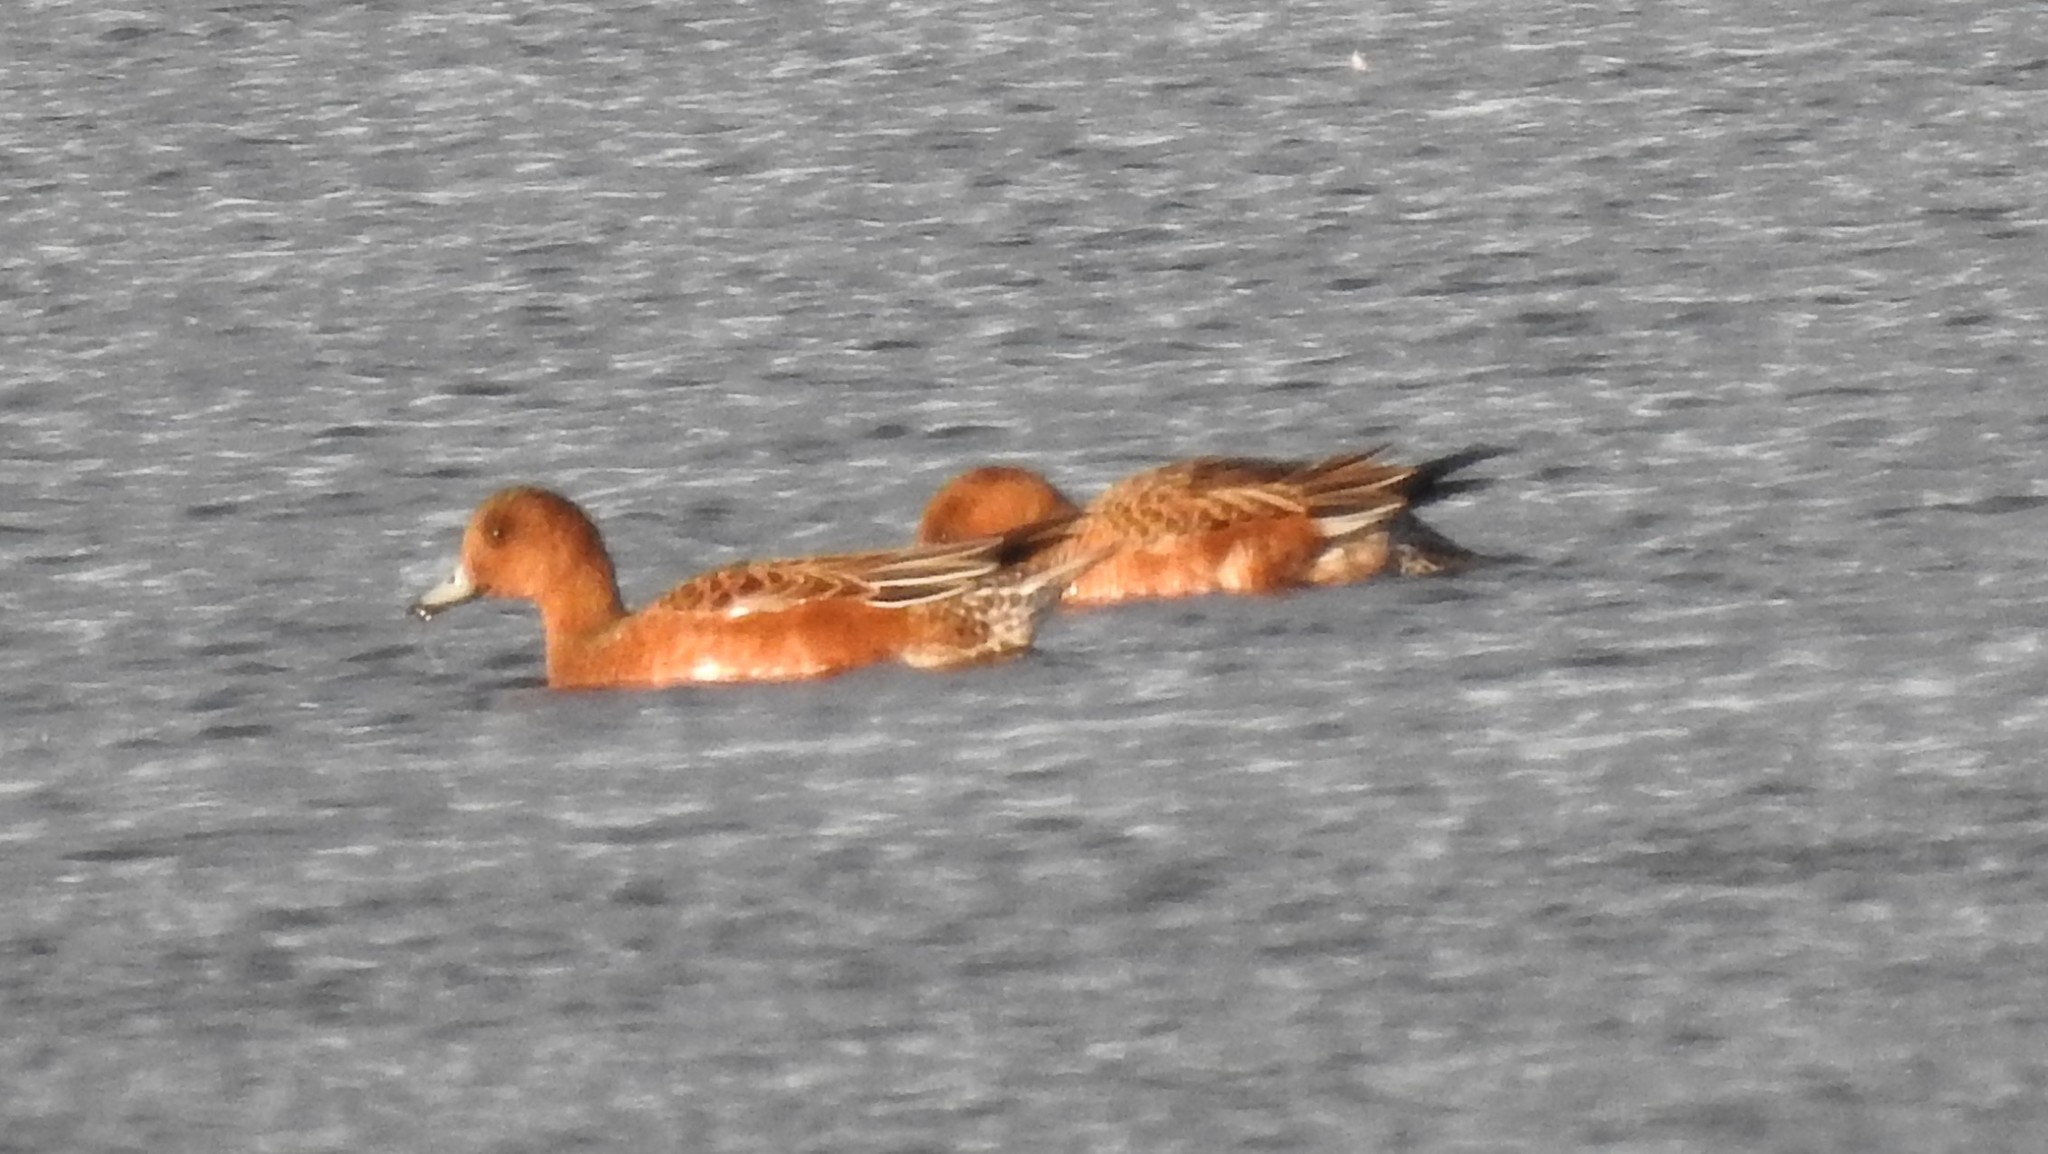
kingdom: Animalia
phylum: Chordata
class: Aves
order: Anseriformes
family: Anatidae
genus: Mareca
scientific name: Mareca penelope
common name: Eurasian wigeon
